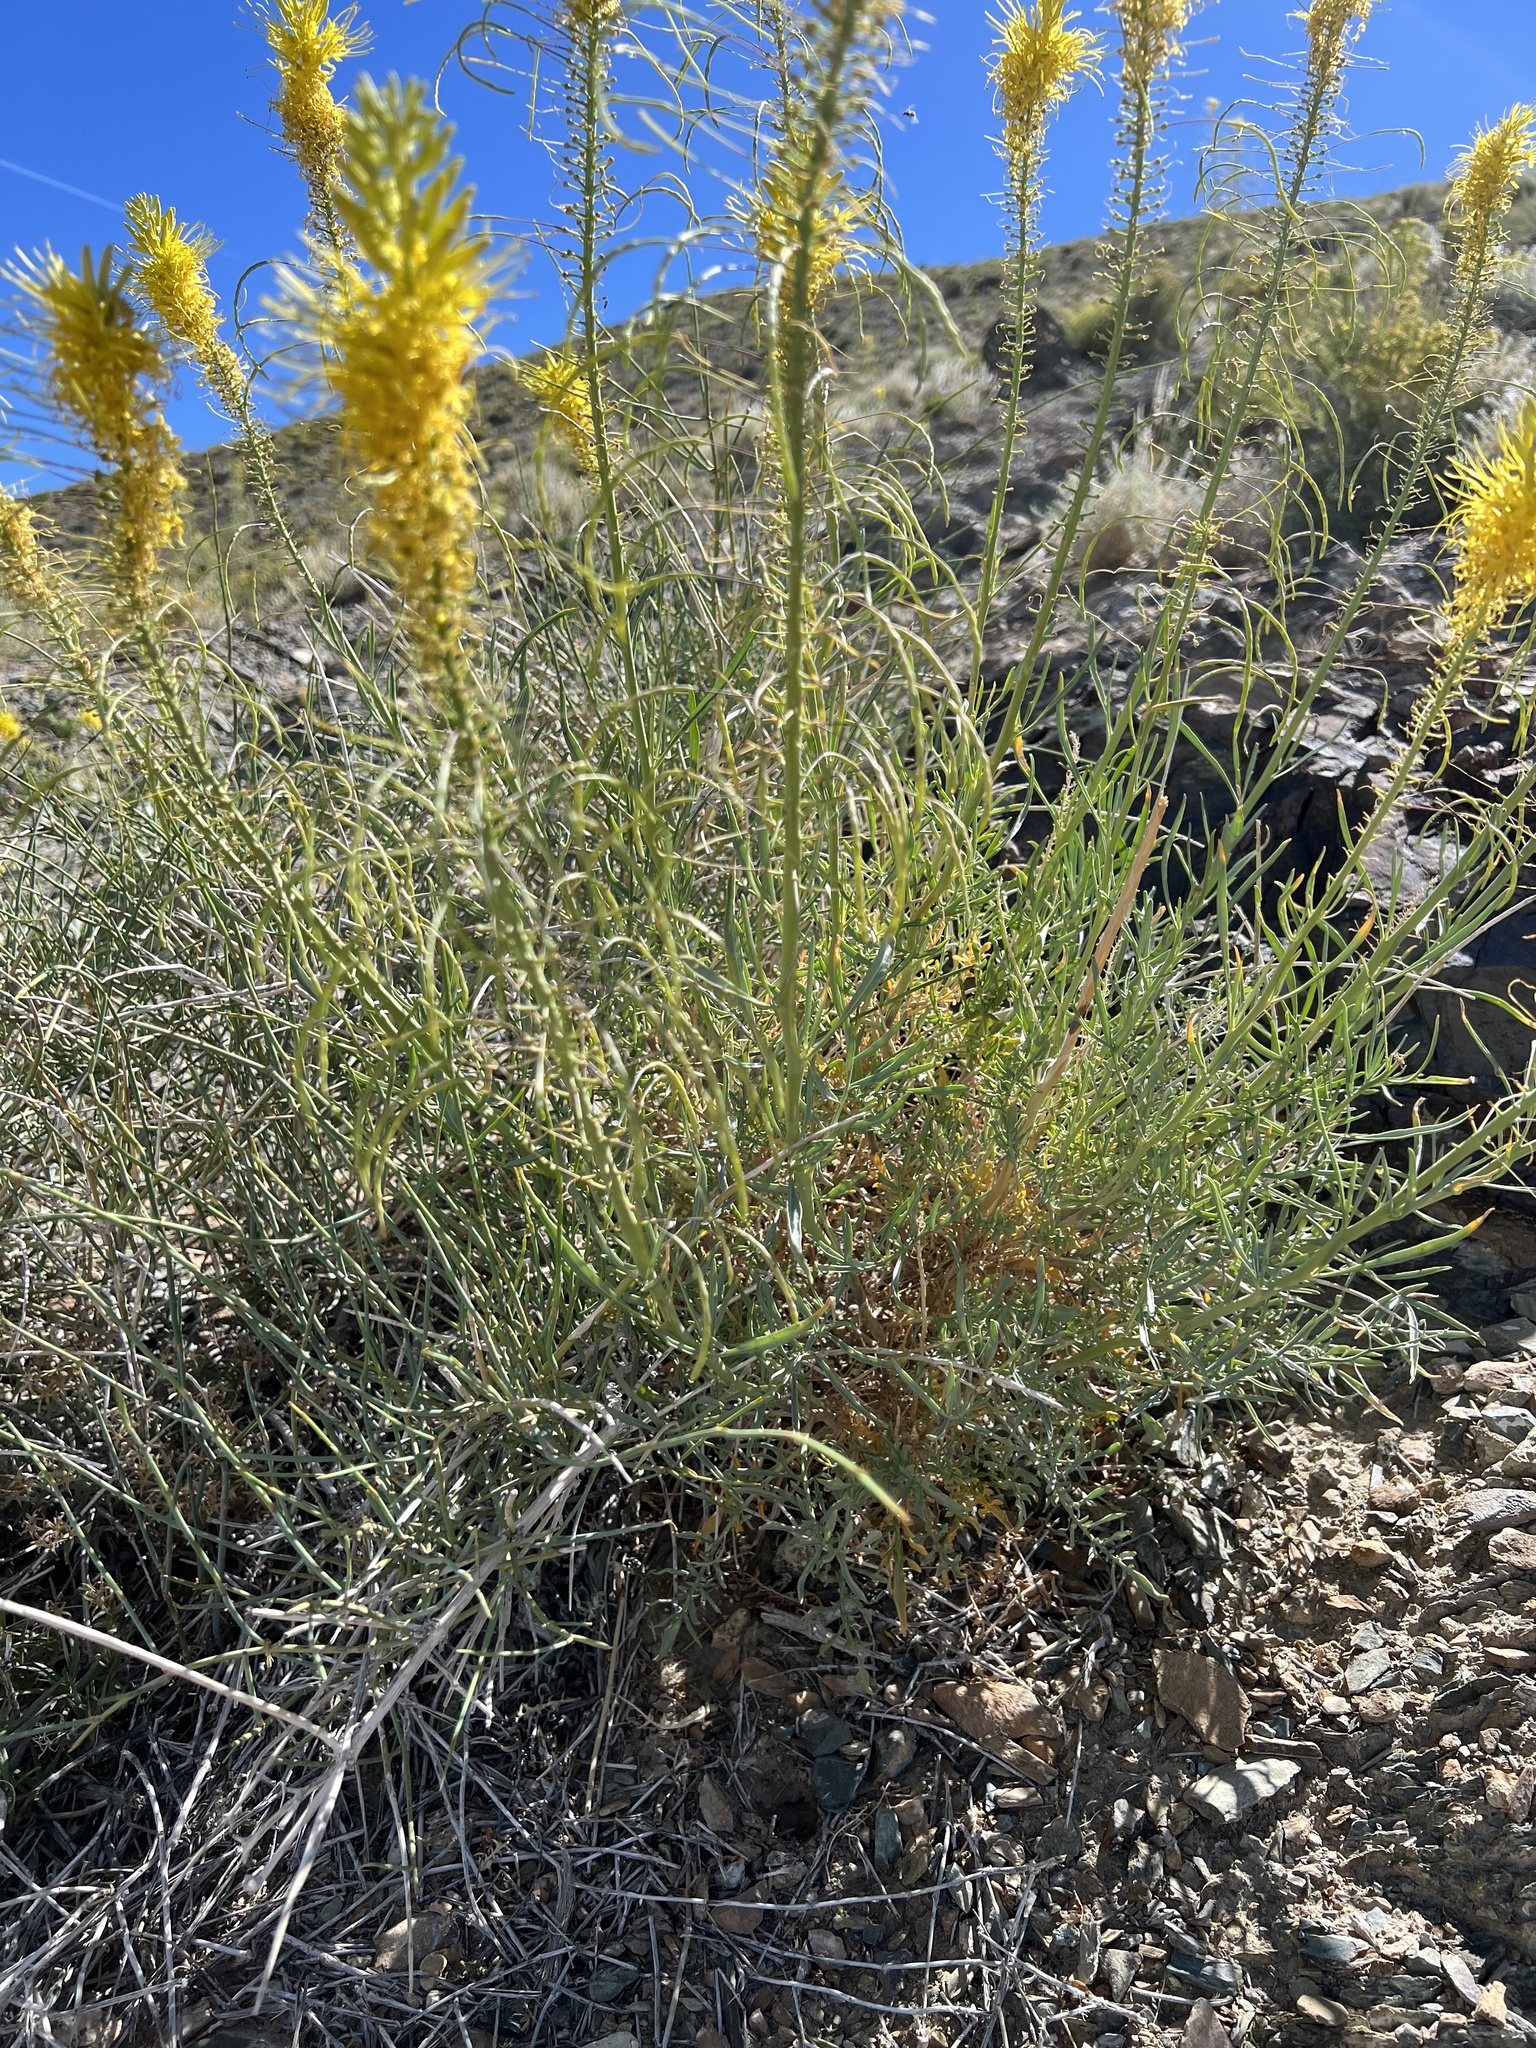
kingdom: Plantae
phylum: Tracheophyta
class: Magnoliopsida
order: Brassicales
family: Brassicaceae
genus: Stanleya
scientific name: Stanleya pinnata
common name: Prince's-plume
